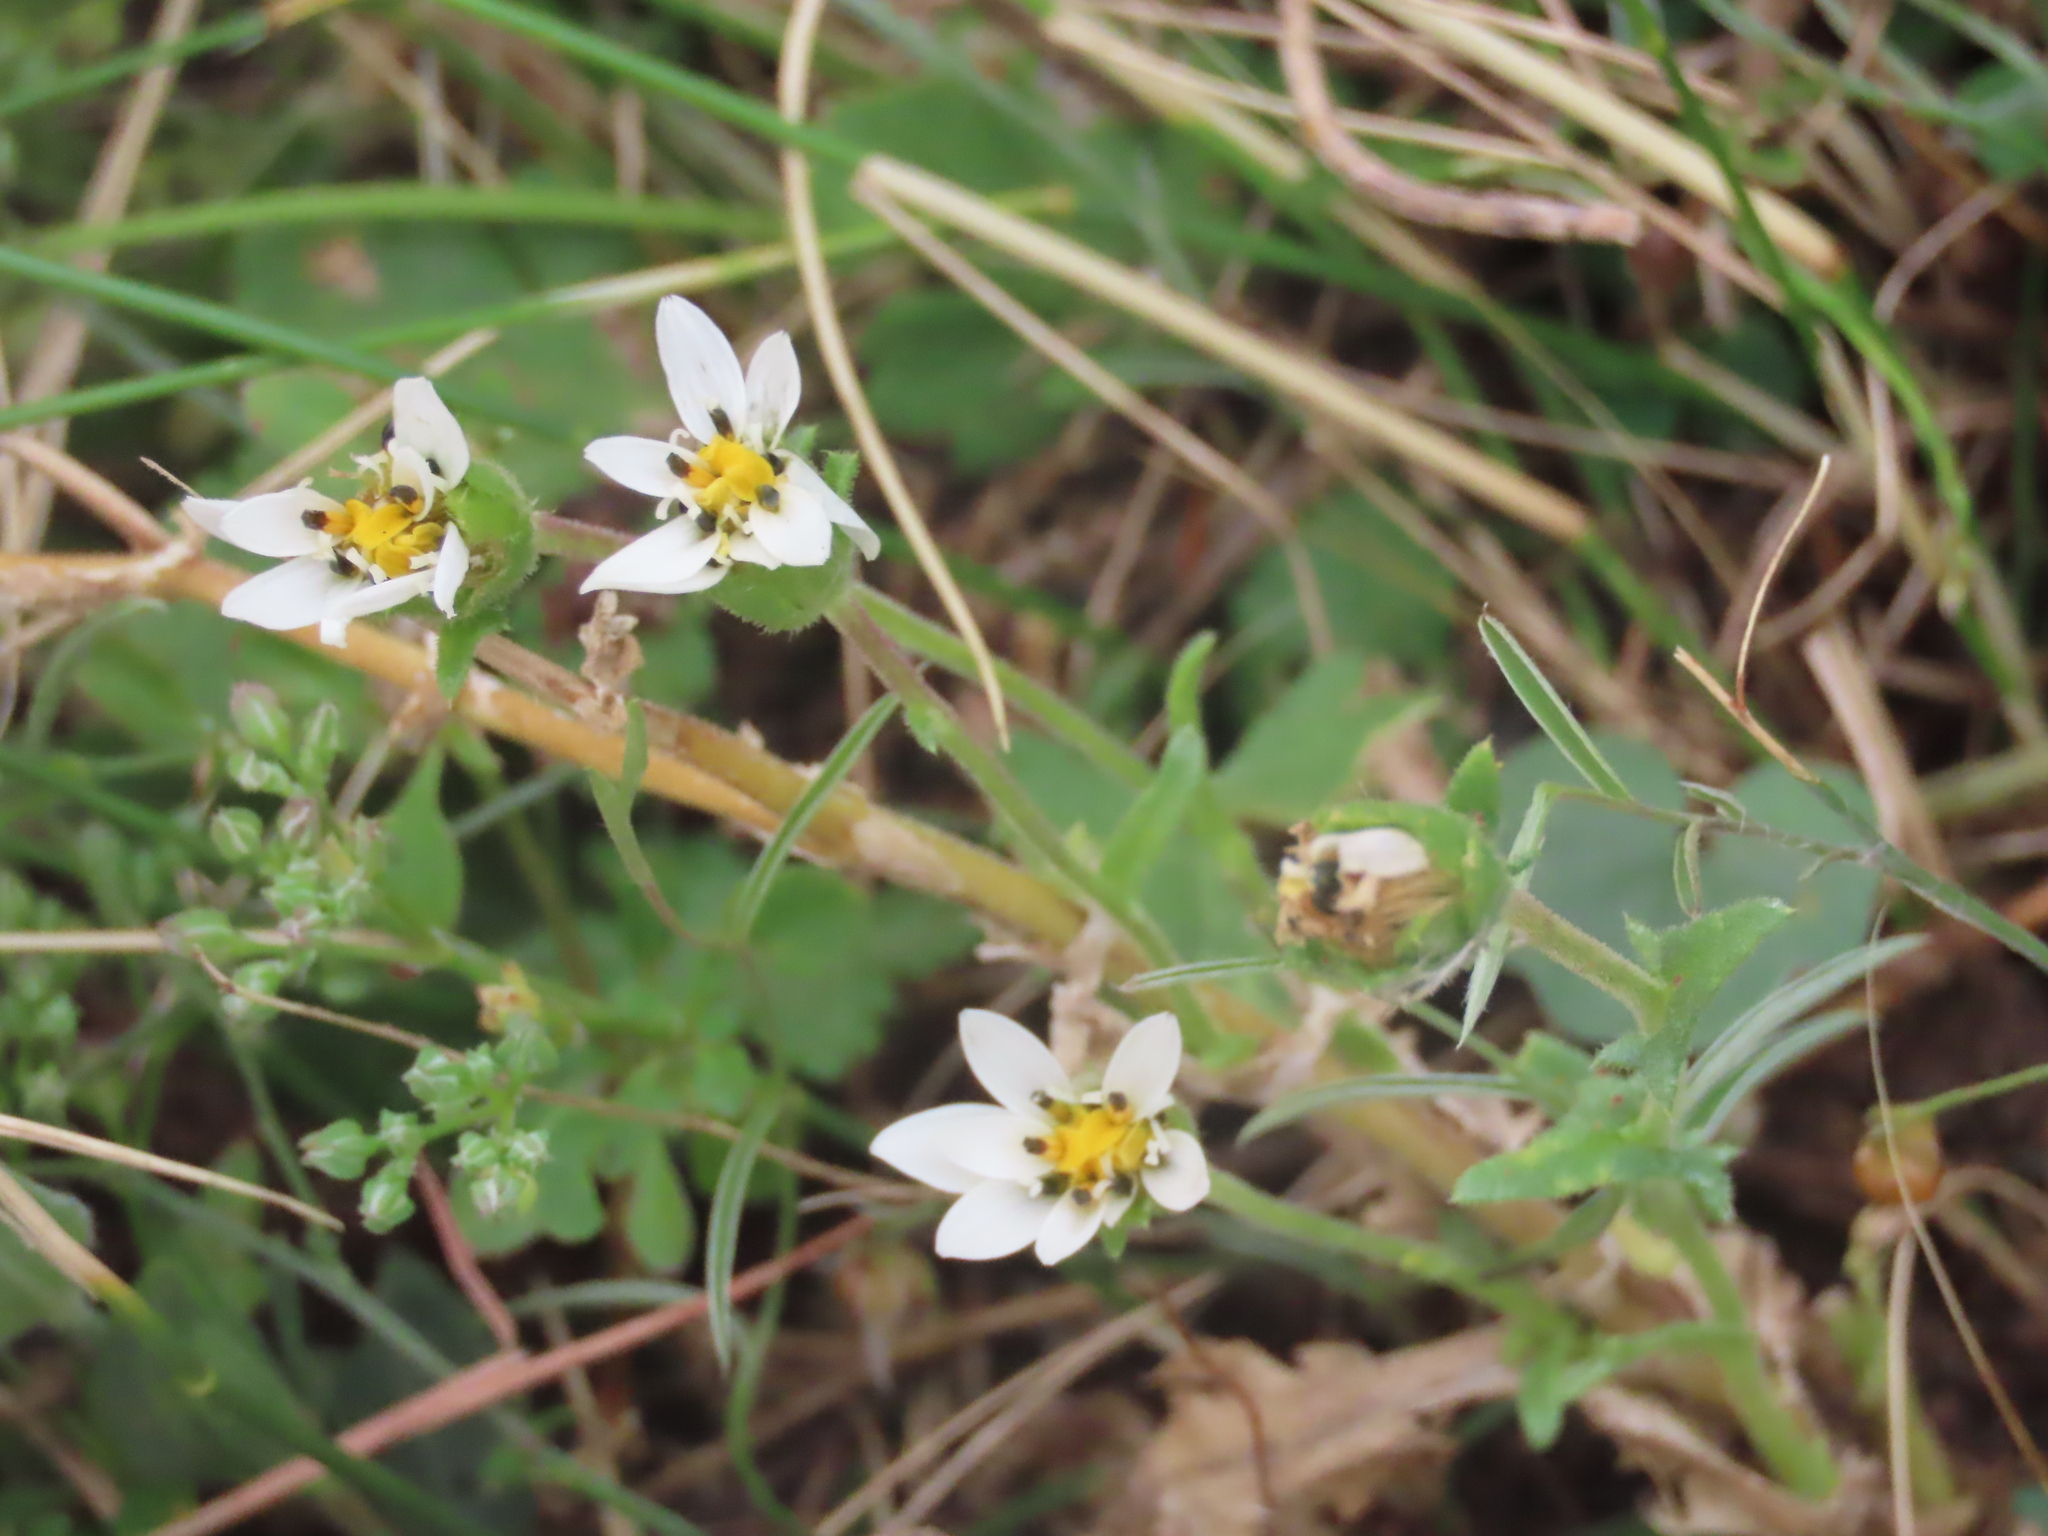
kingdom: Plantae
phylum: Tracheophyta
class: Magnoliopsida
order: Asterales
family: Asteraceae
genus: Perezia
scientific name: Perezia multiflora
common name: Perezia
